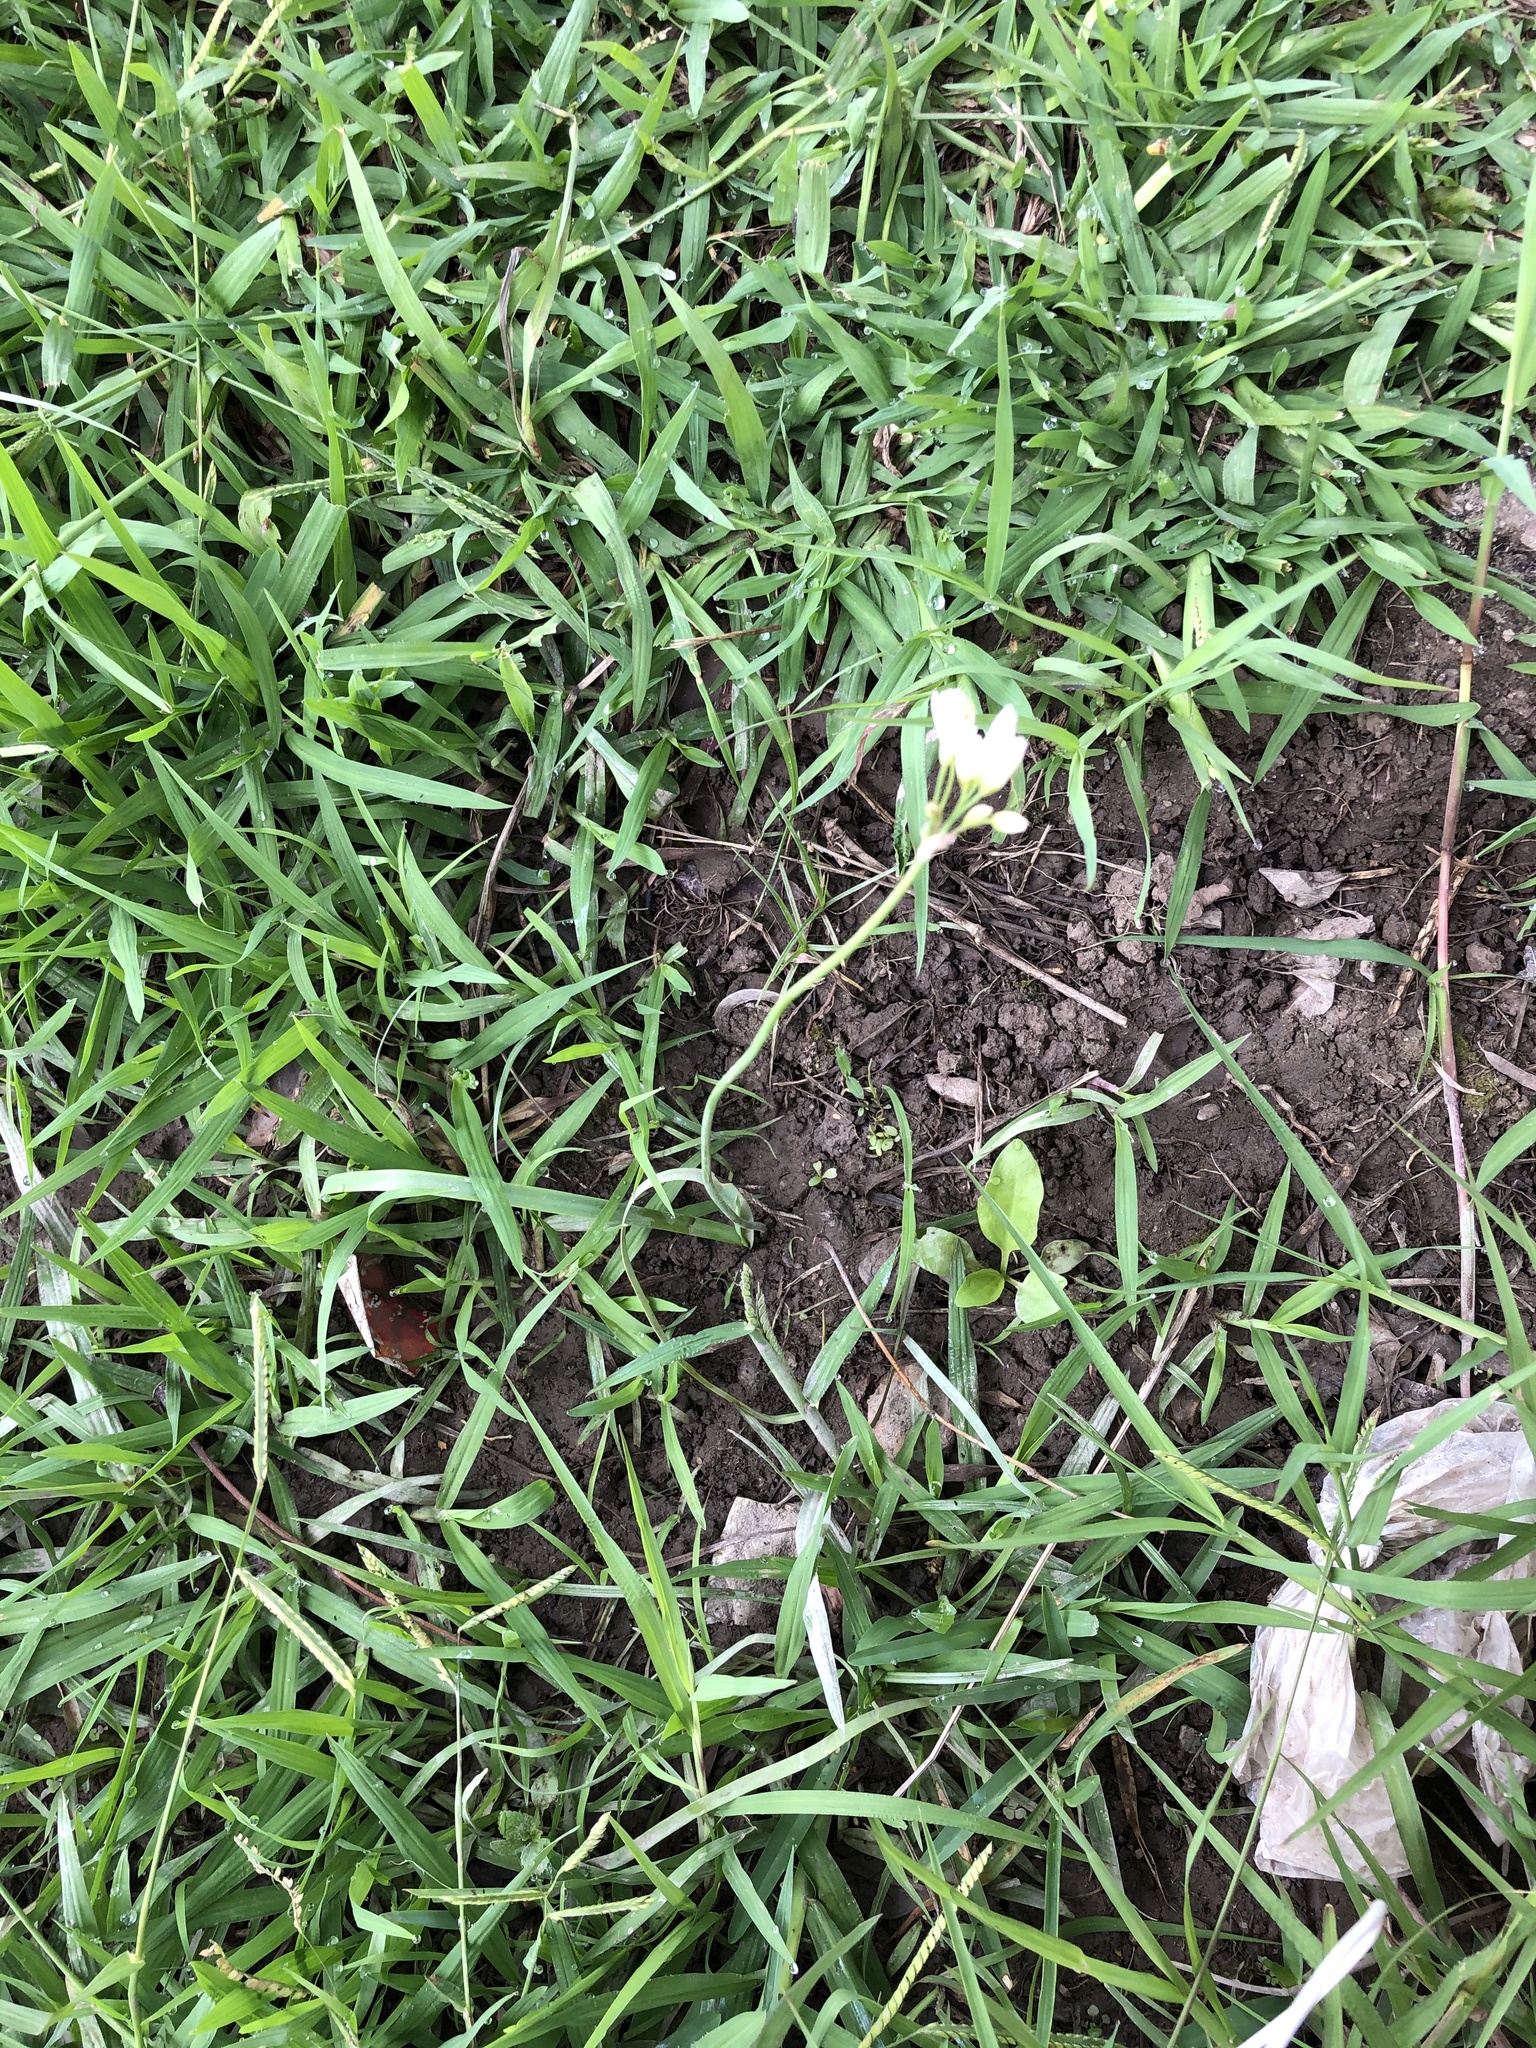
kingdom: Plantae
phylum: Tracheophyta
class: Liliopsida
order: Asparagales
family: Amaryllidaceae
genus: Nothoscordum
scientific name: Nothoscordum gracile
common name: Slender false garlic
